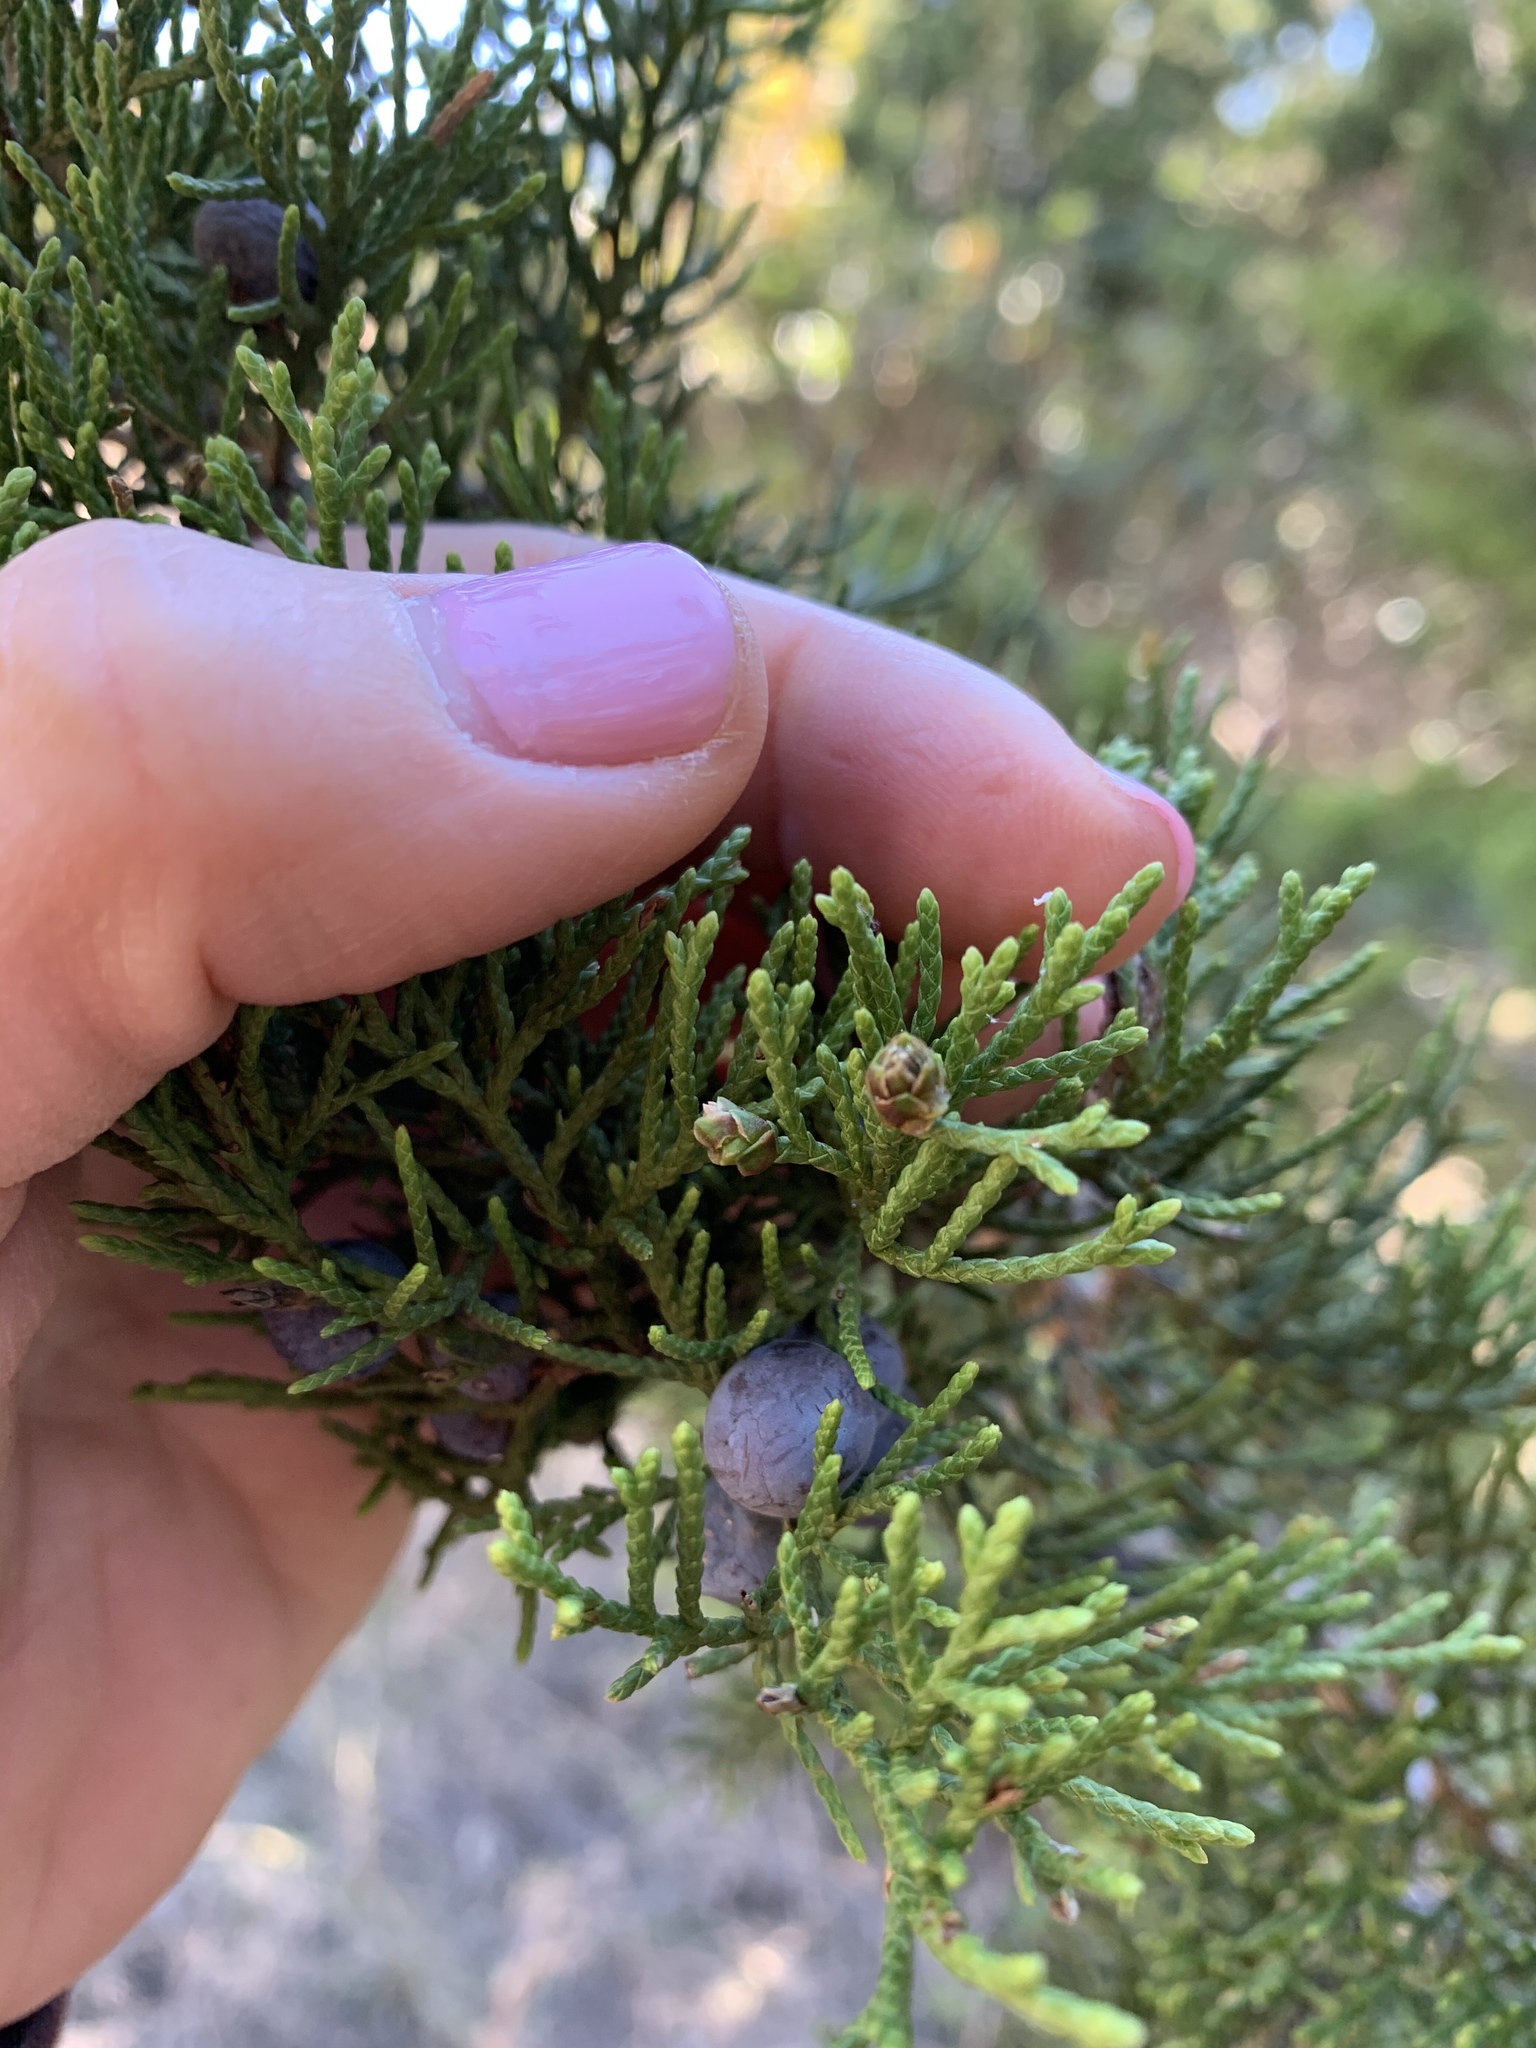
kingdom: Plantae
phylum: Tracheophyta
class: Pinopsida
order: Pinales
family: Cupressaceae
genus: Juniperus
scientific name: Juniperus ashei
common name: Mexican juniper
